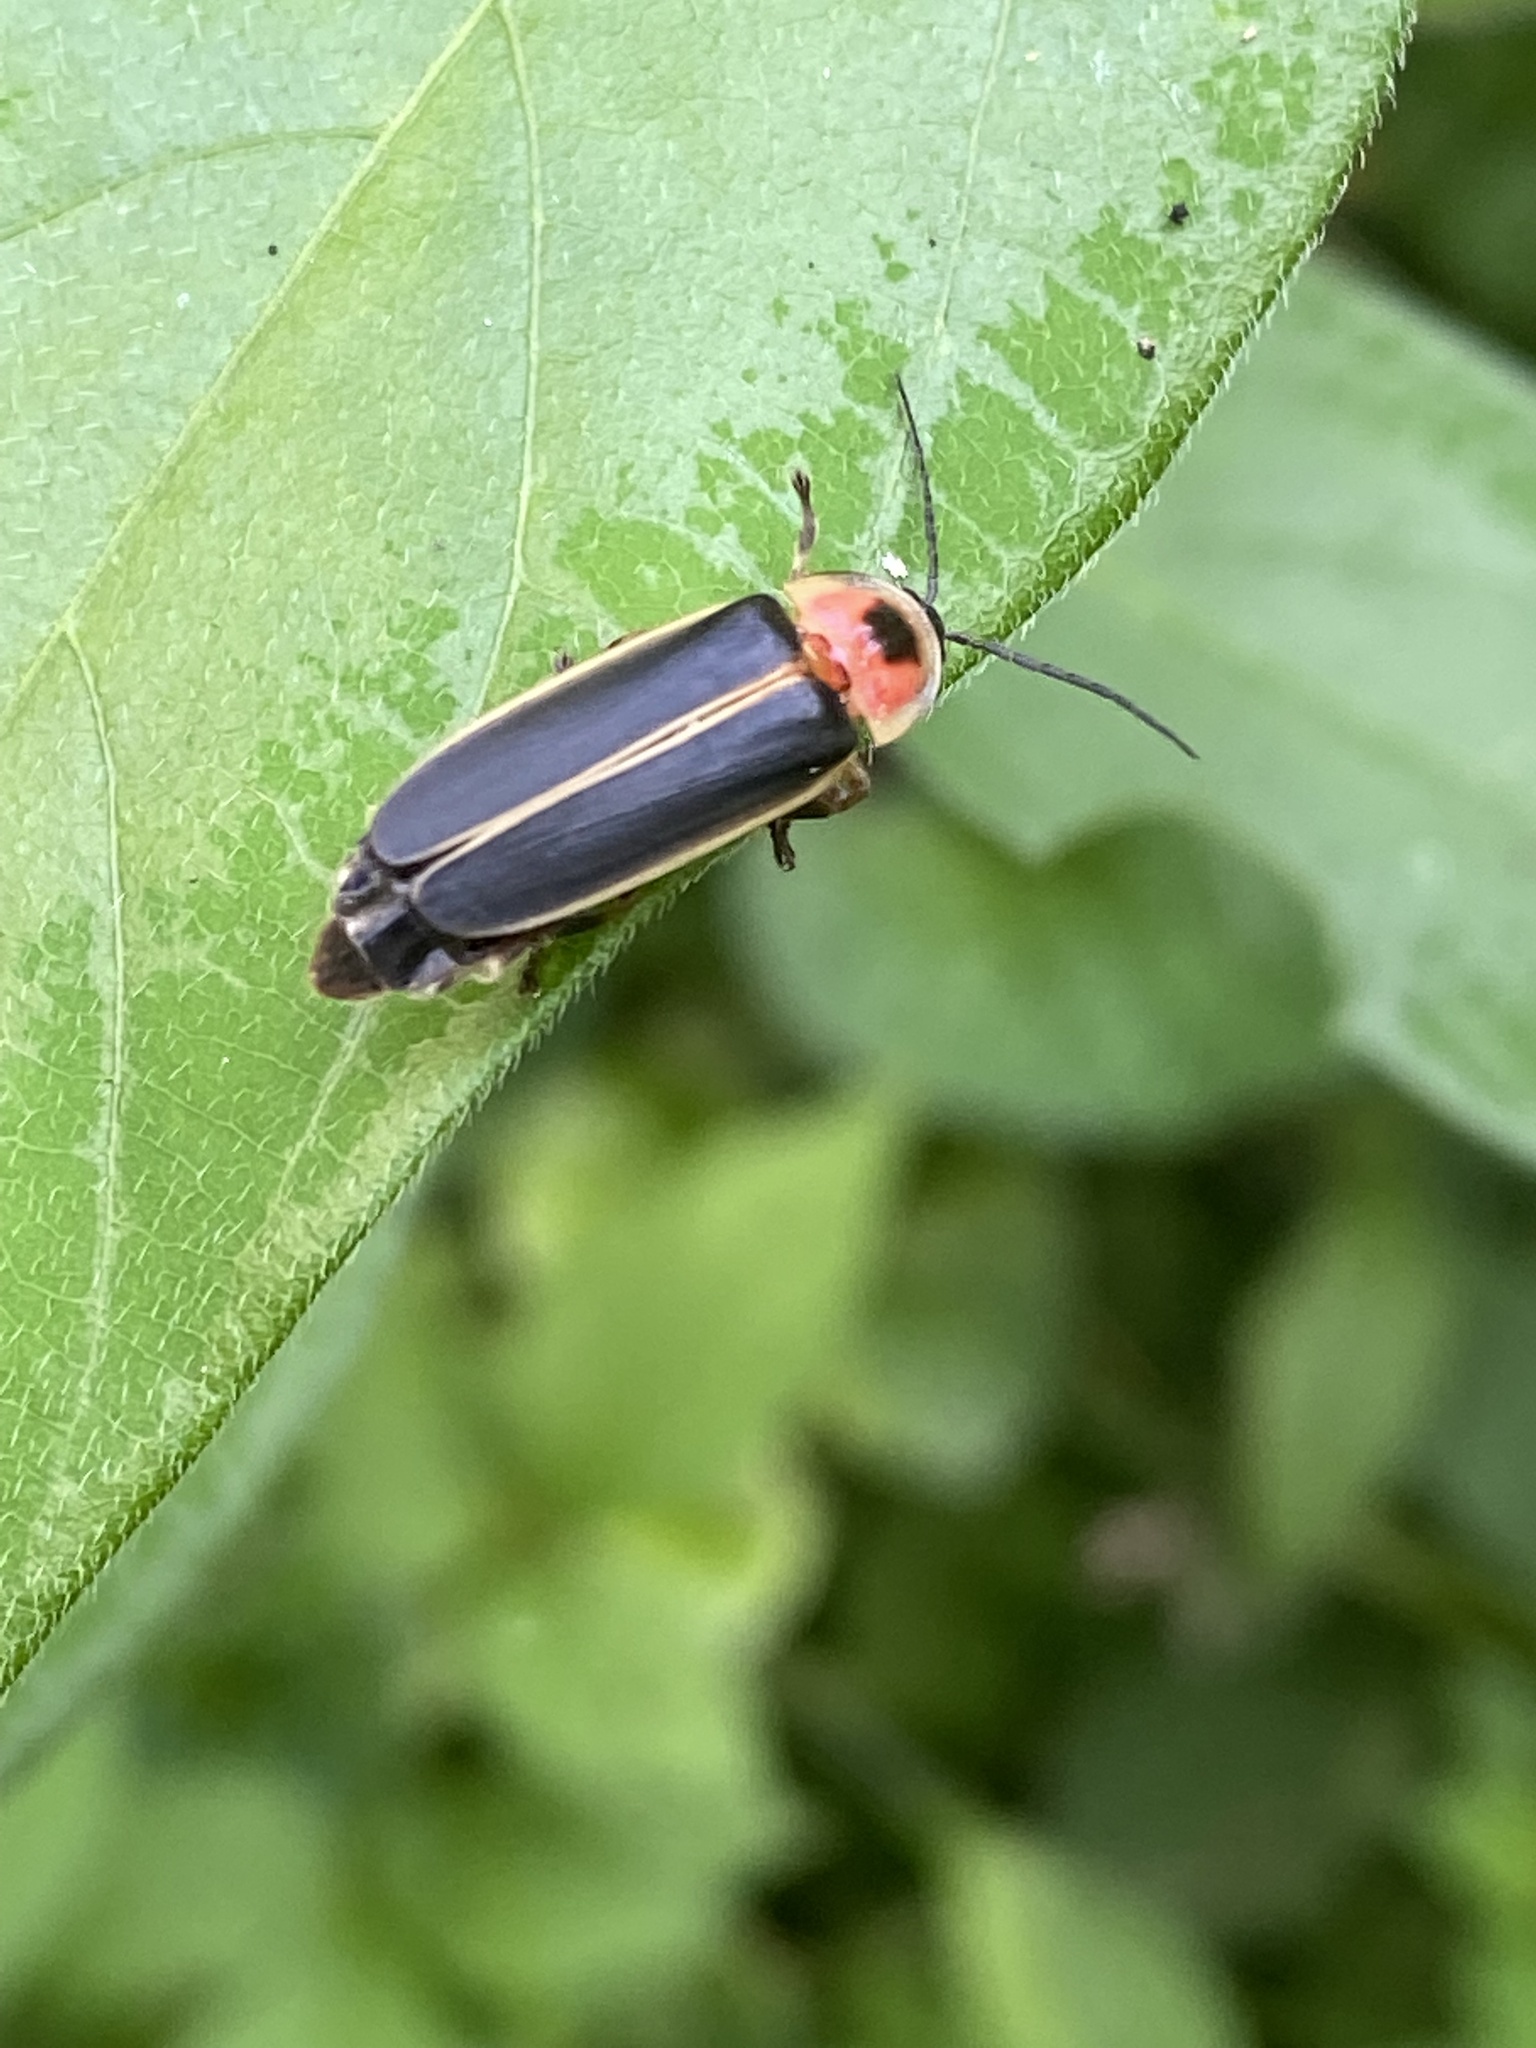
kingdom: Animalia
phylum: Arthropoda
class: Insecta
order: Coleoptera
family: Lampyridae
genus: Photinus
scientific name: Photinus pyralis
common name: Big dipper firefly
